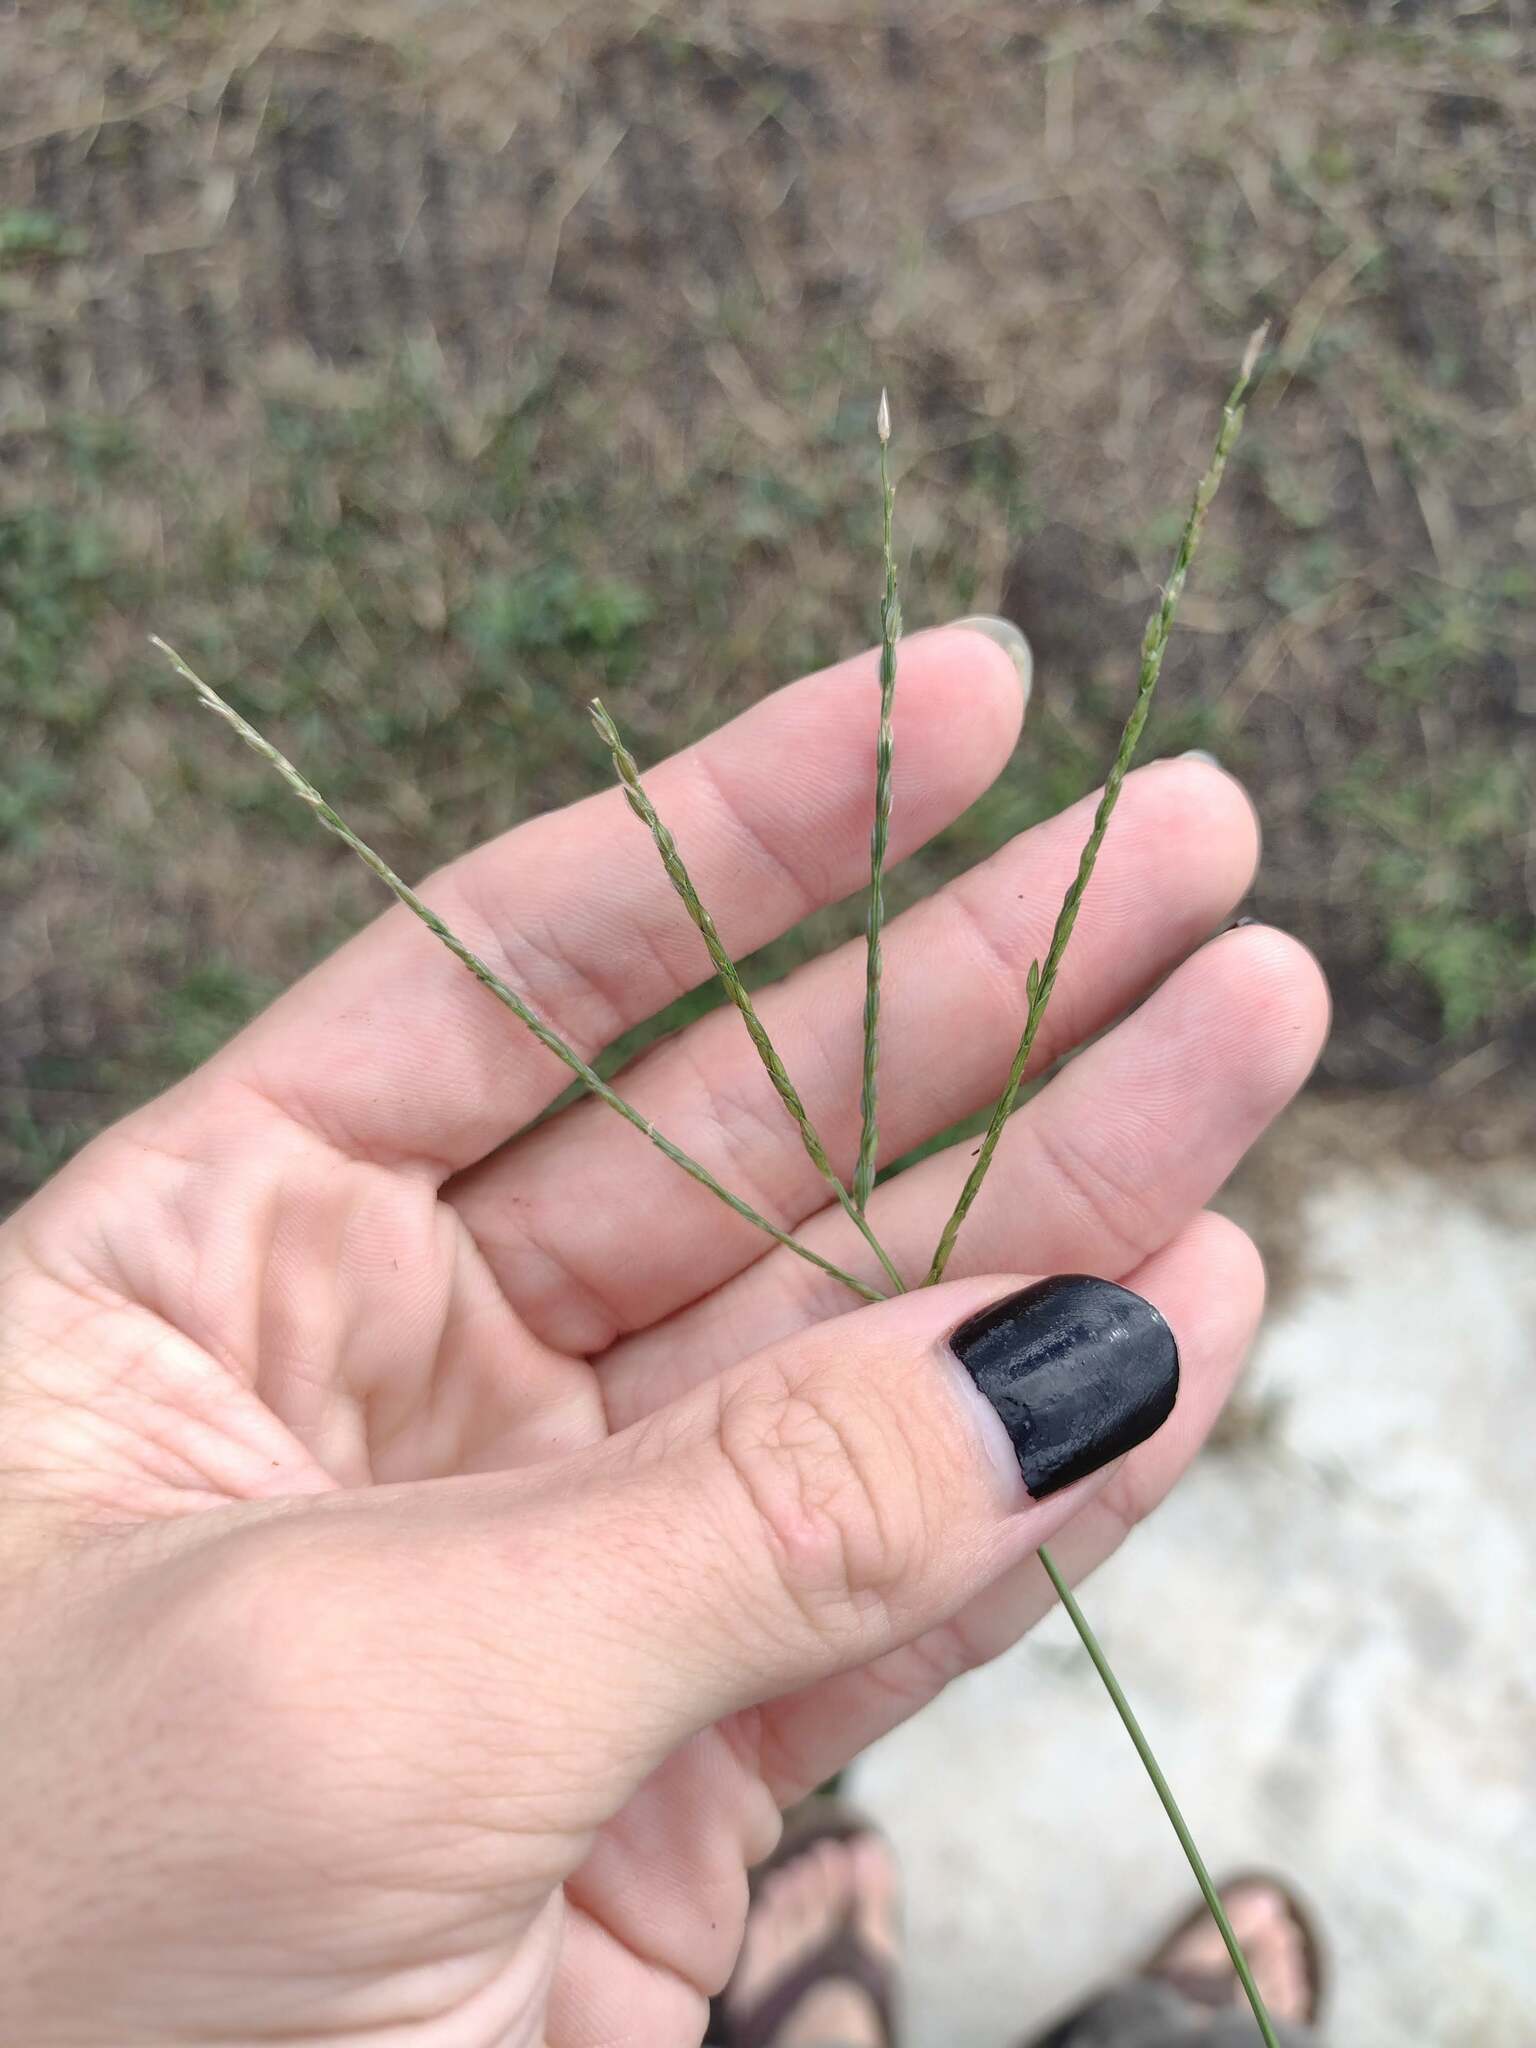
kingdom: Plantae
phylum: Tracheophyta
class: Liliopsida
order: Poales
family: Poaceae
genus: Digitaria
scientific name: Digitaria ciliaris
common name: Tropical finger-grass
